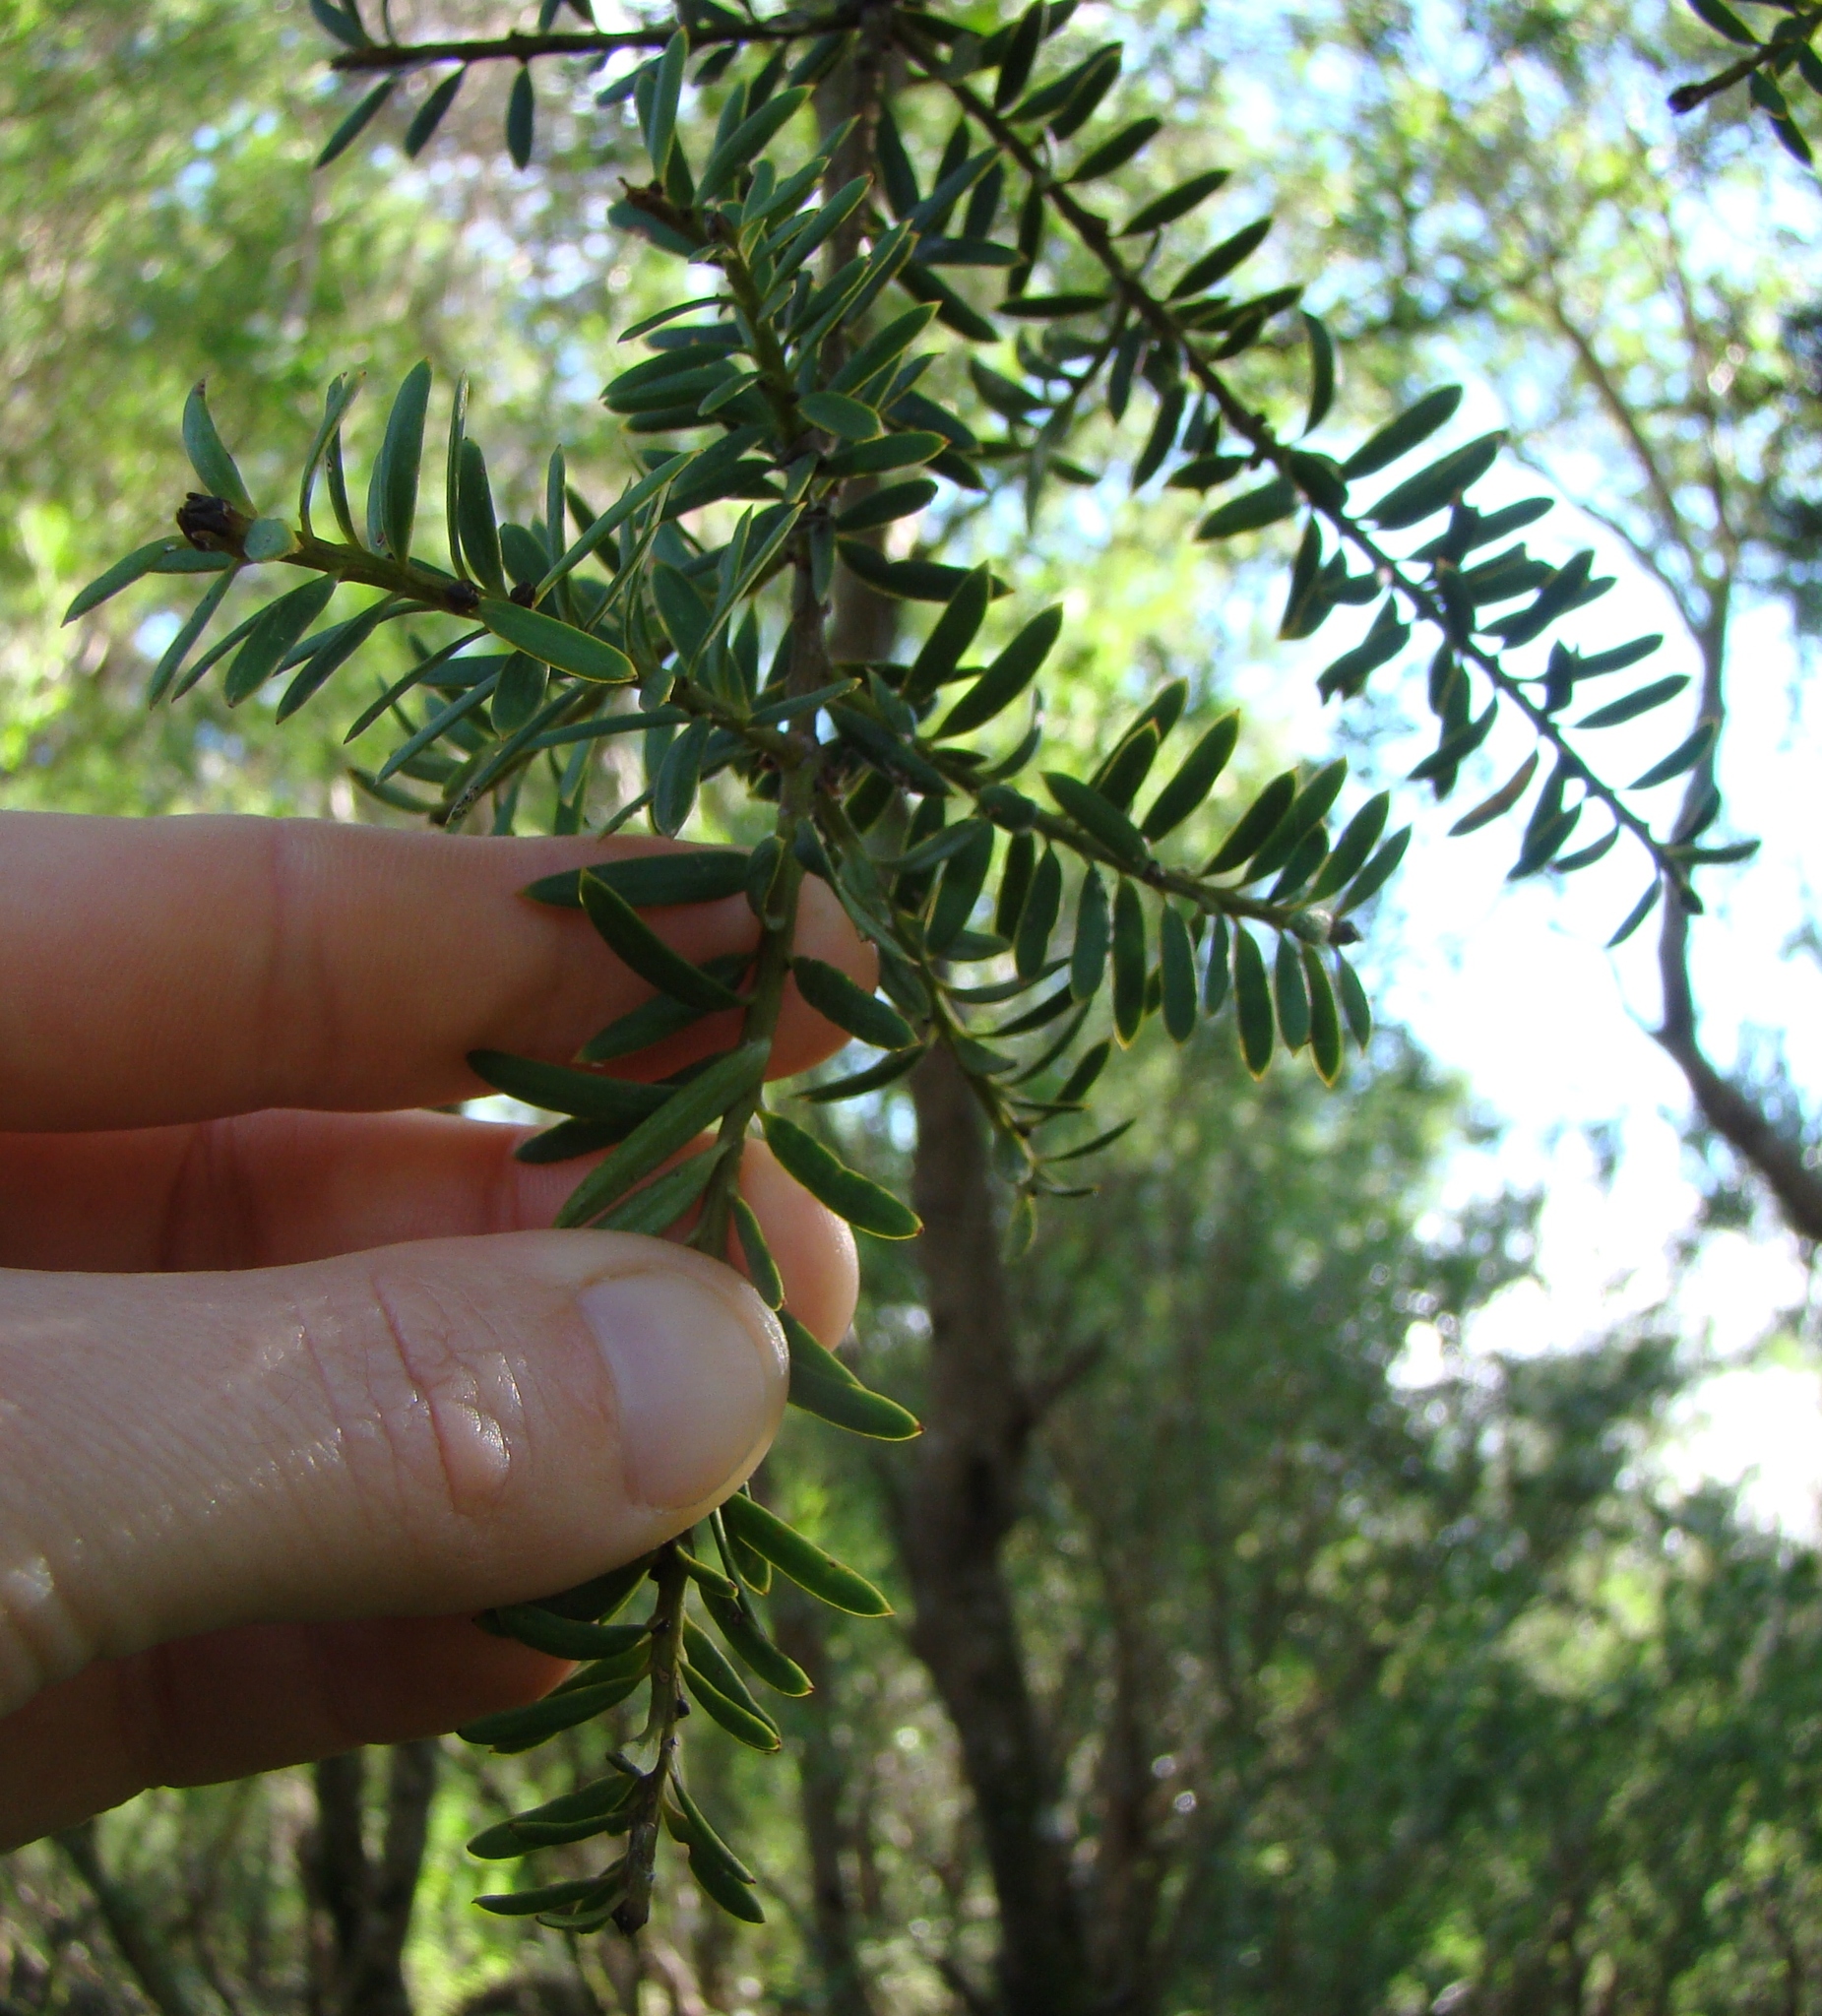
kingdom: Plantae
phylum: Tracheophyta
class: Pinopsida
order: Pinales
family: Podocarpaceae
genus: Podocarpus
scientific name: Podocarpus totara
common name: Totara
